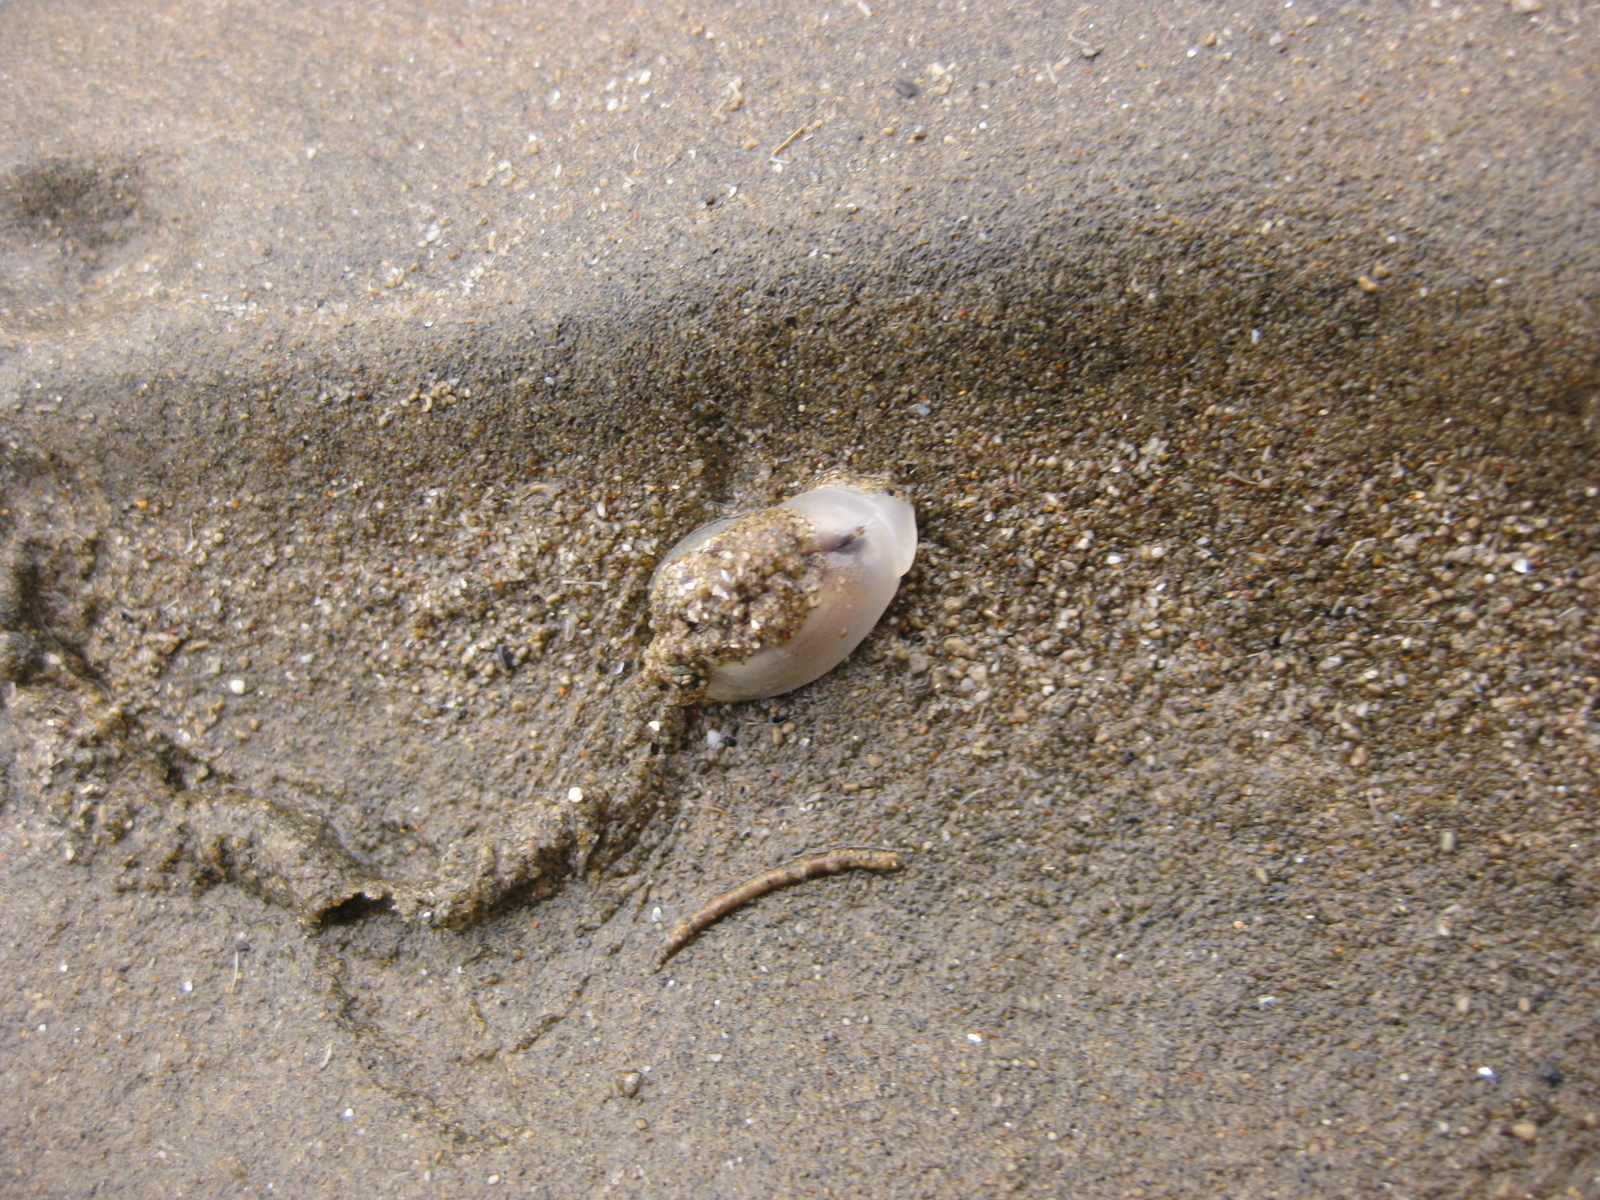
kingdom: Animalia
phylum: Mollusca
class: Gastropoda
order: Neogastropoda
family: Ancillariidae
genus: Amalda
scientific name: Amalda depressa
